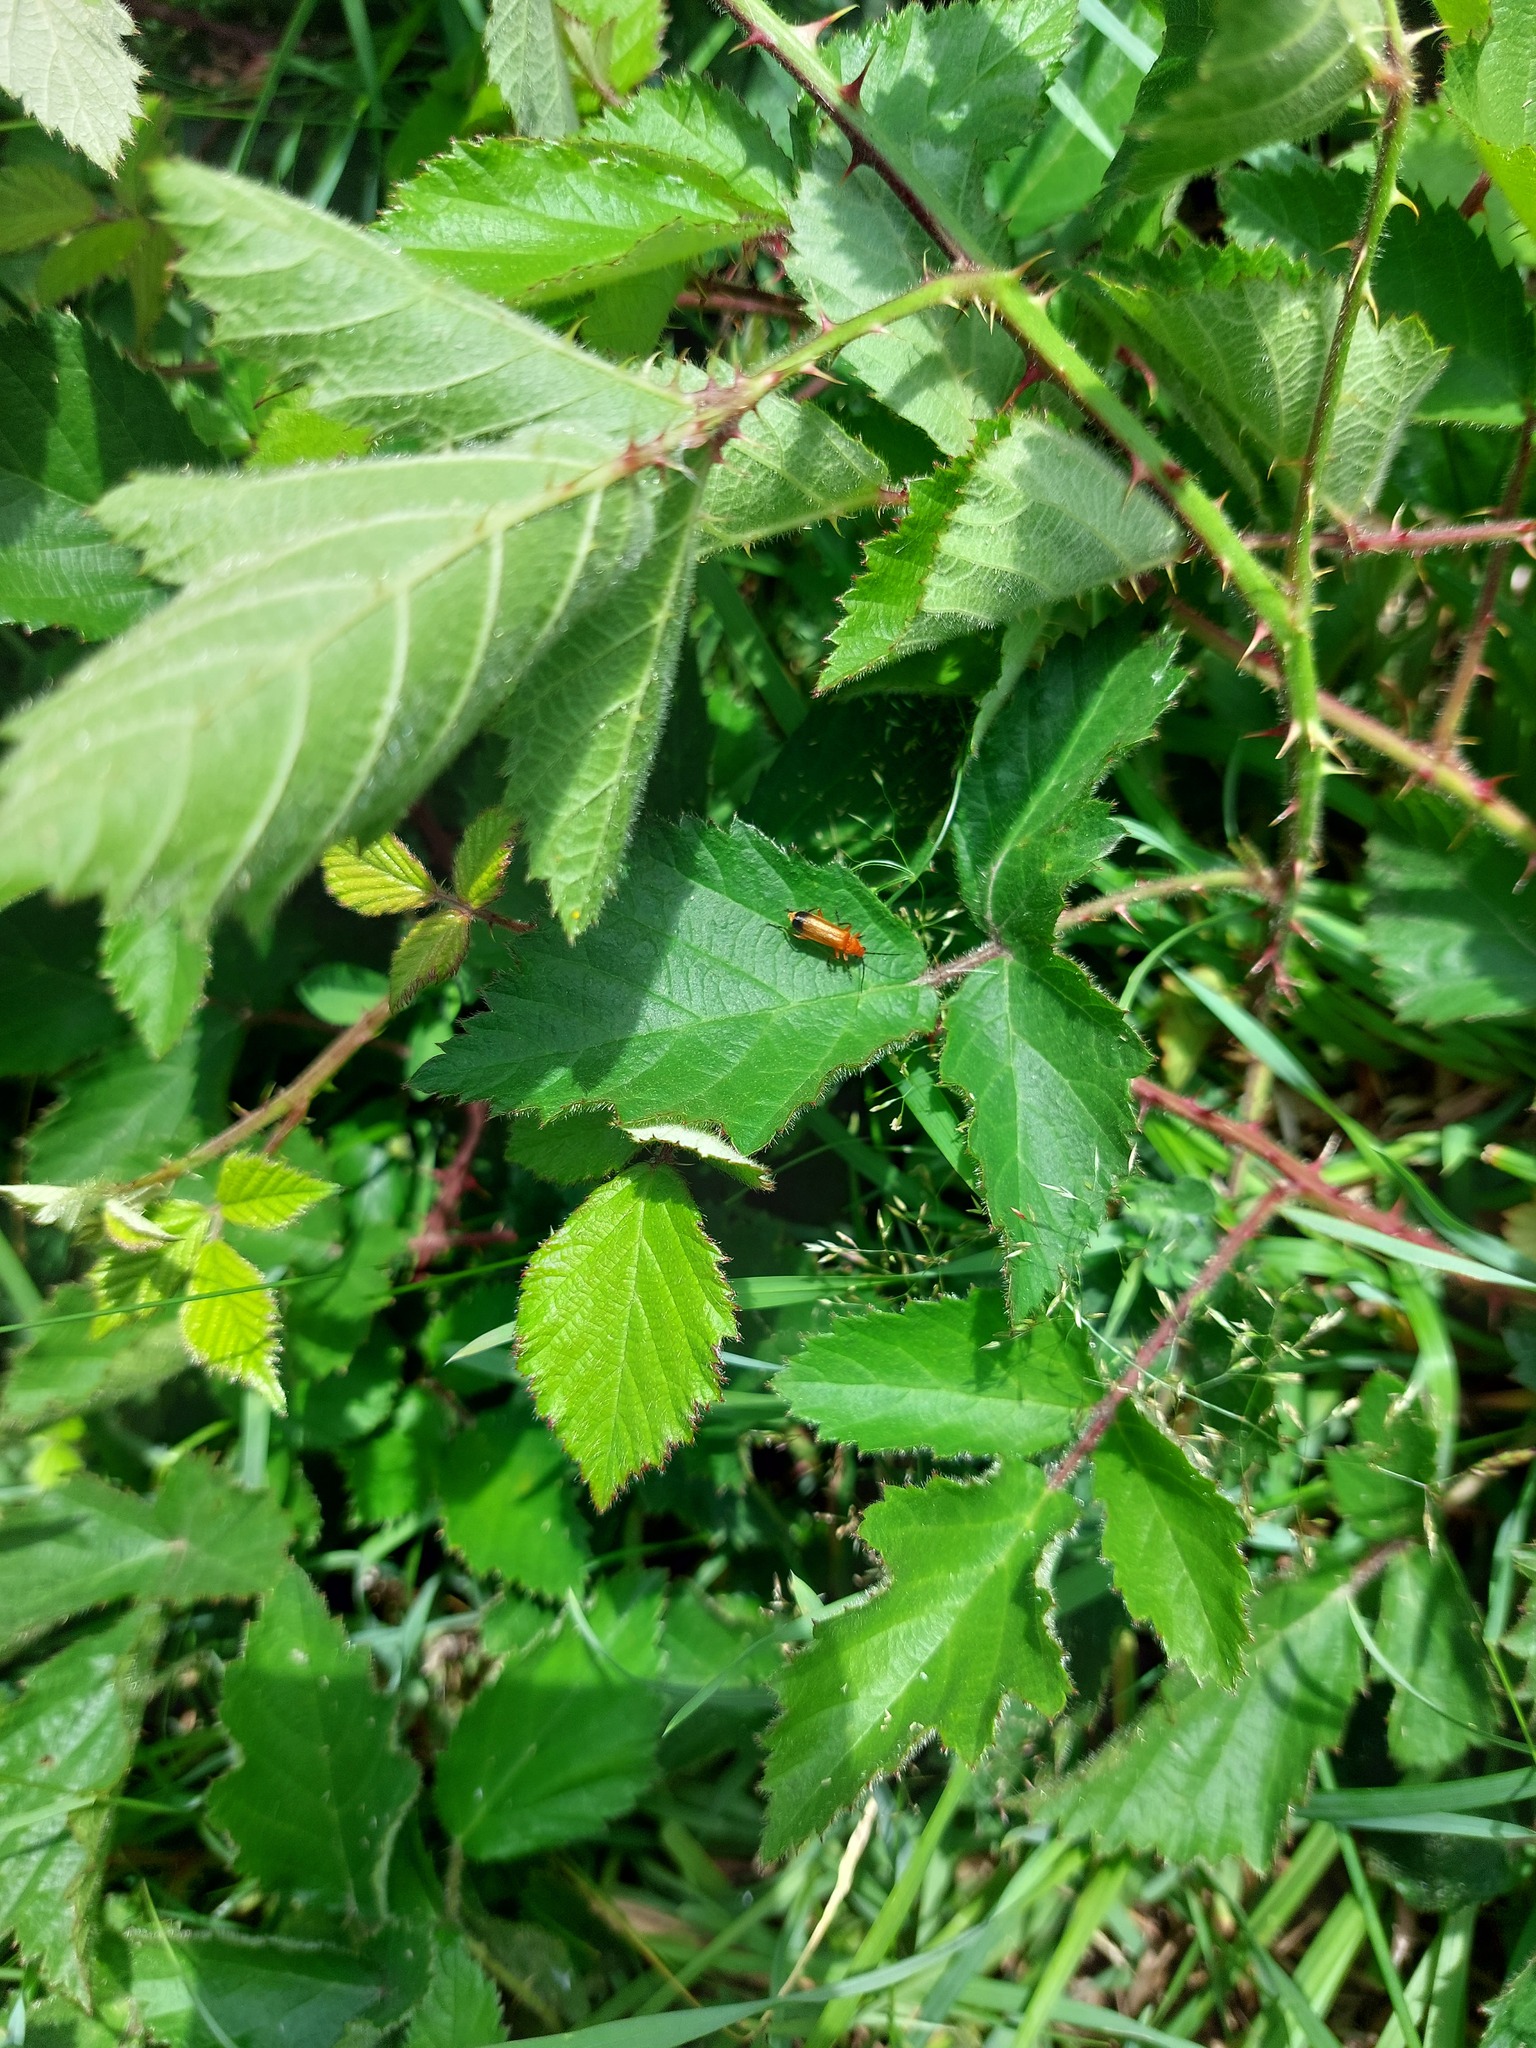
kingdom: Animalia
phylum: Arthropoda
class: Insecta
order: Coleoptera
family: Cantharidae
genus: Rhagonycha
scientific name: Rhagonycha fulva
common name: Common red soldier beetle
